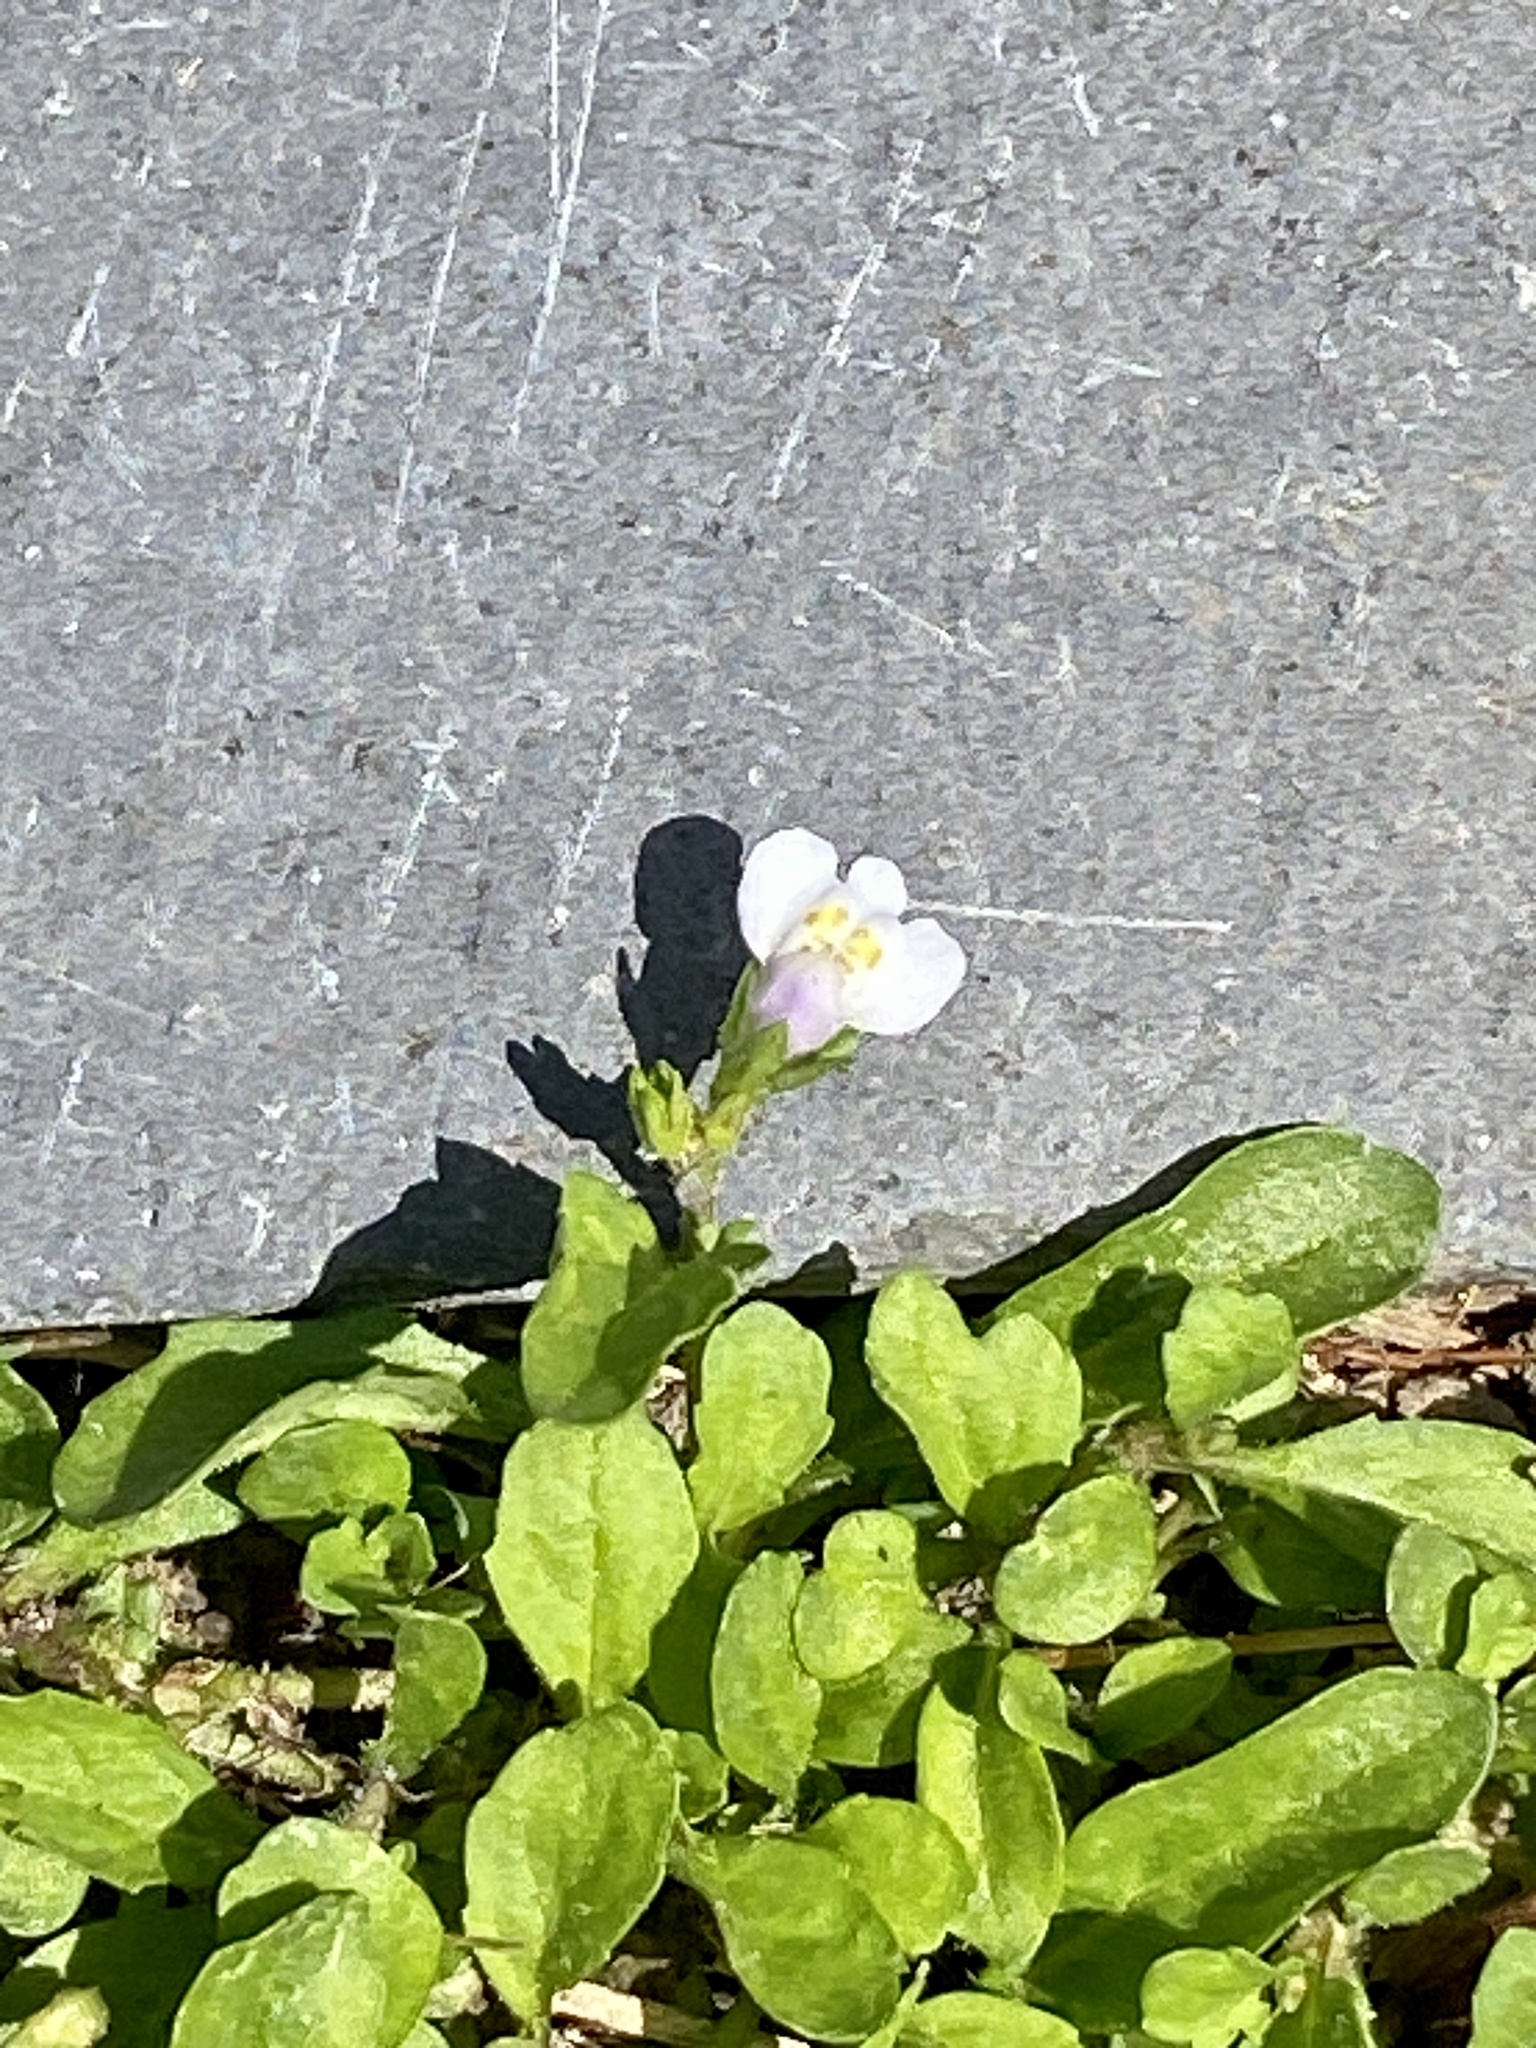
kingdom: Plantae
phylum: Tracheophyta
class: Magnoliopsida
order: Lamiales
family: Mazaceae
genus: Mazus
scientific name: Mazus pumilus
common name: Japanese mazus
